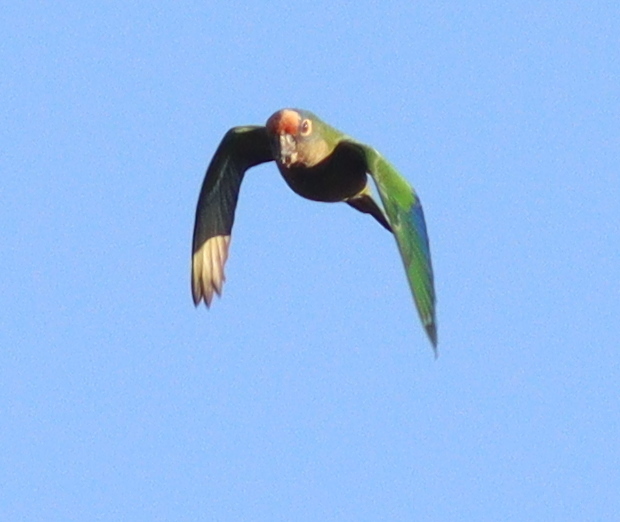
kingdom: Animalia
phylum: Chordata
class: Aves
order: Psittaciformes
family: Psittacidae
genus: Aratinga
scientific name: Aratinga aurea
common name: Peach-fronted parakeet
